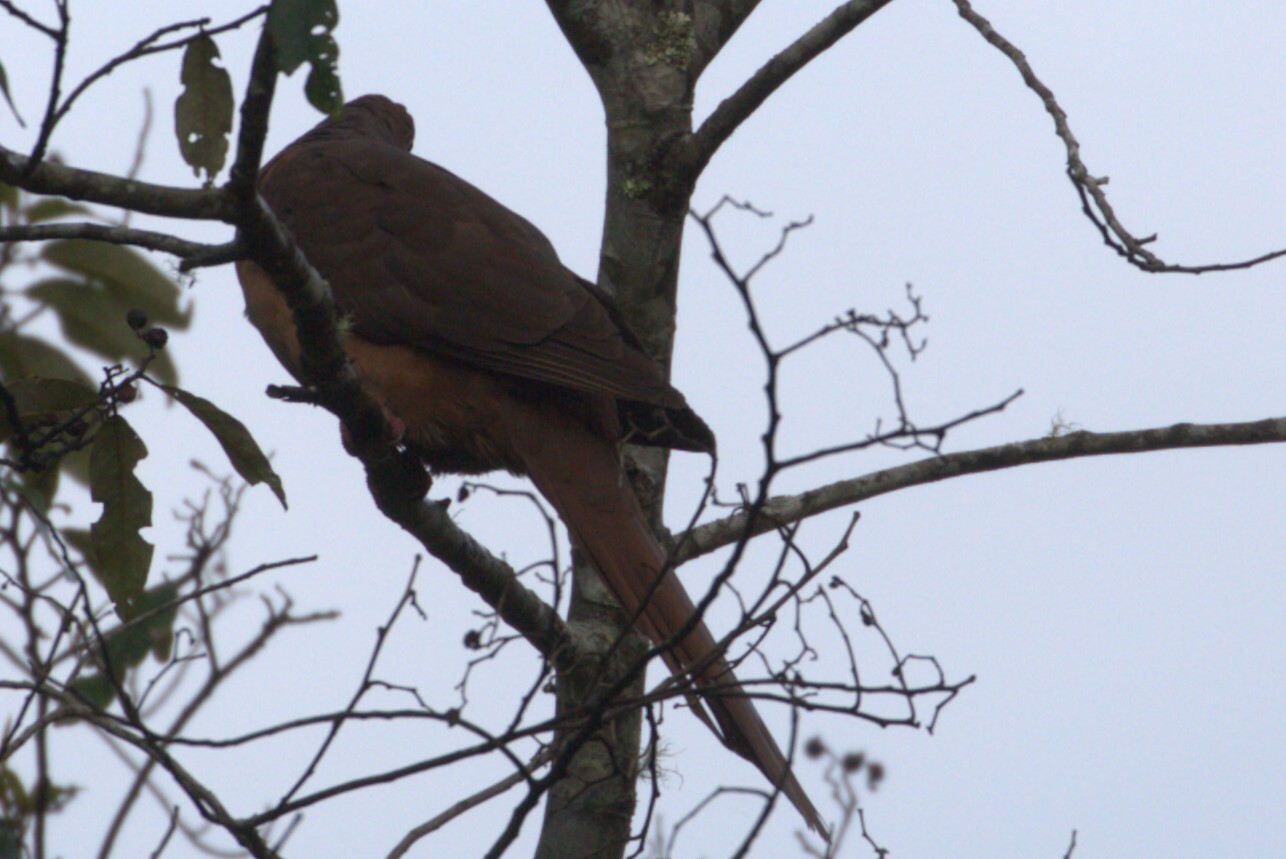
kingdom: Animalia
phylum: Chordata
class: Aves
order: Columbiformes
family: Columbidae
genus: Macropygia
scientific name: Macropygia phasianella
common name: Brown cuckoo-dove
